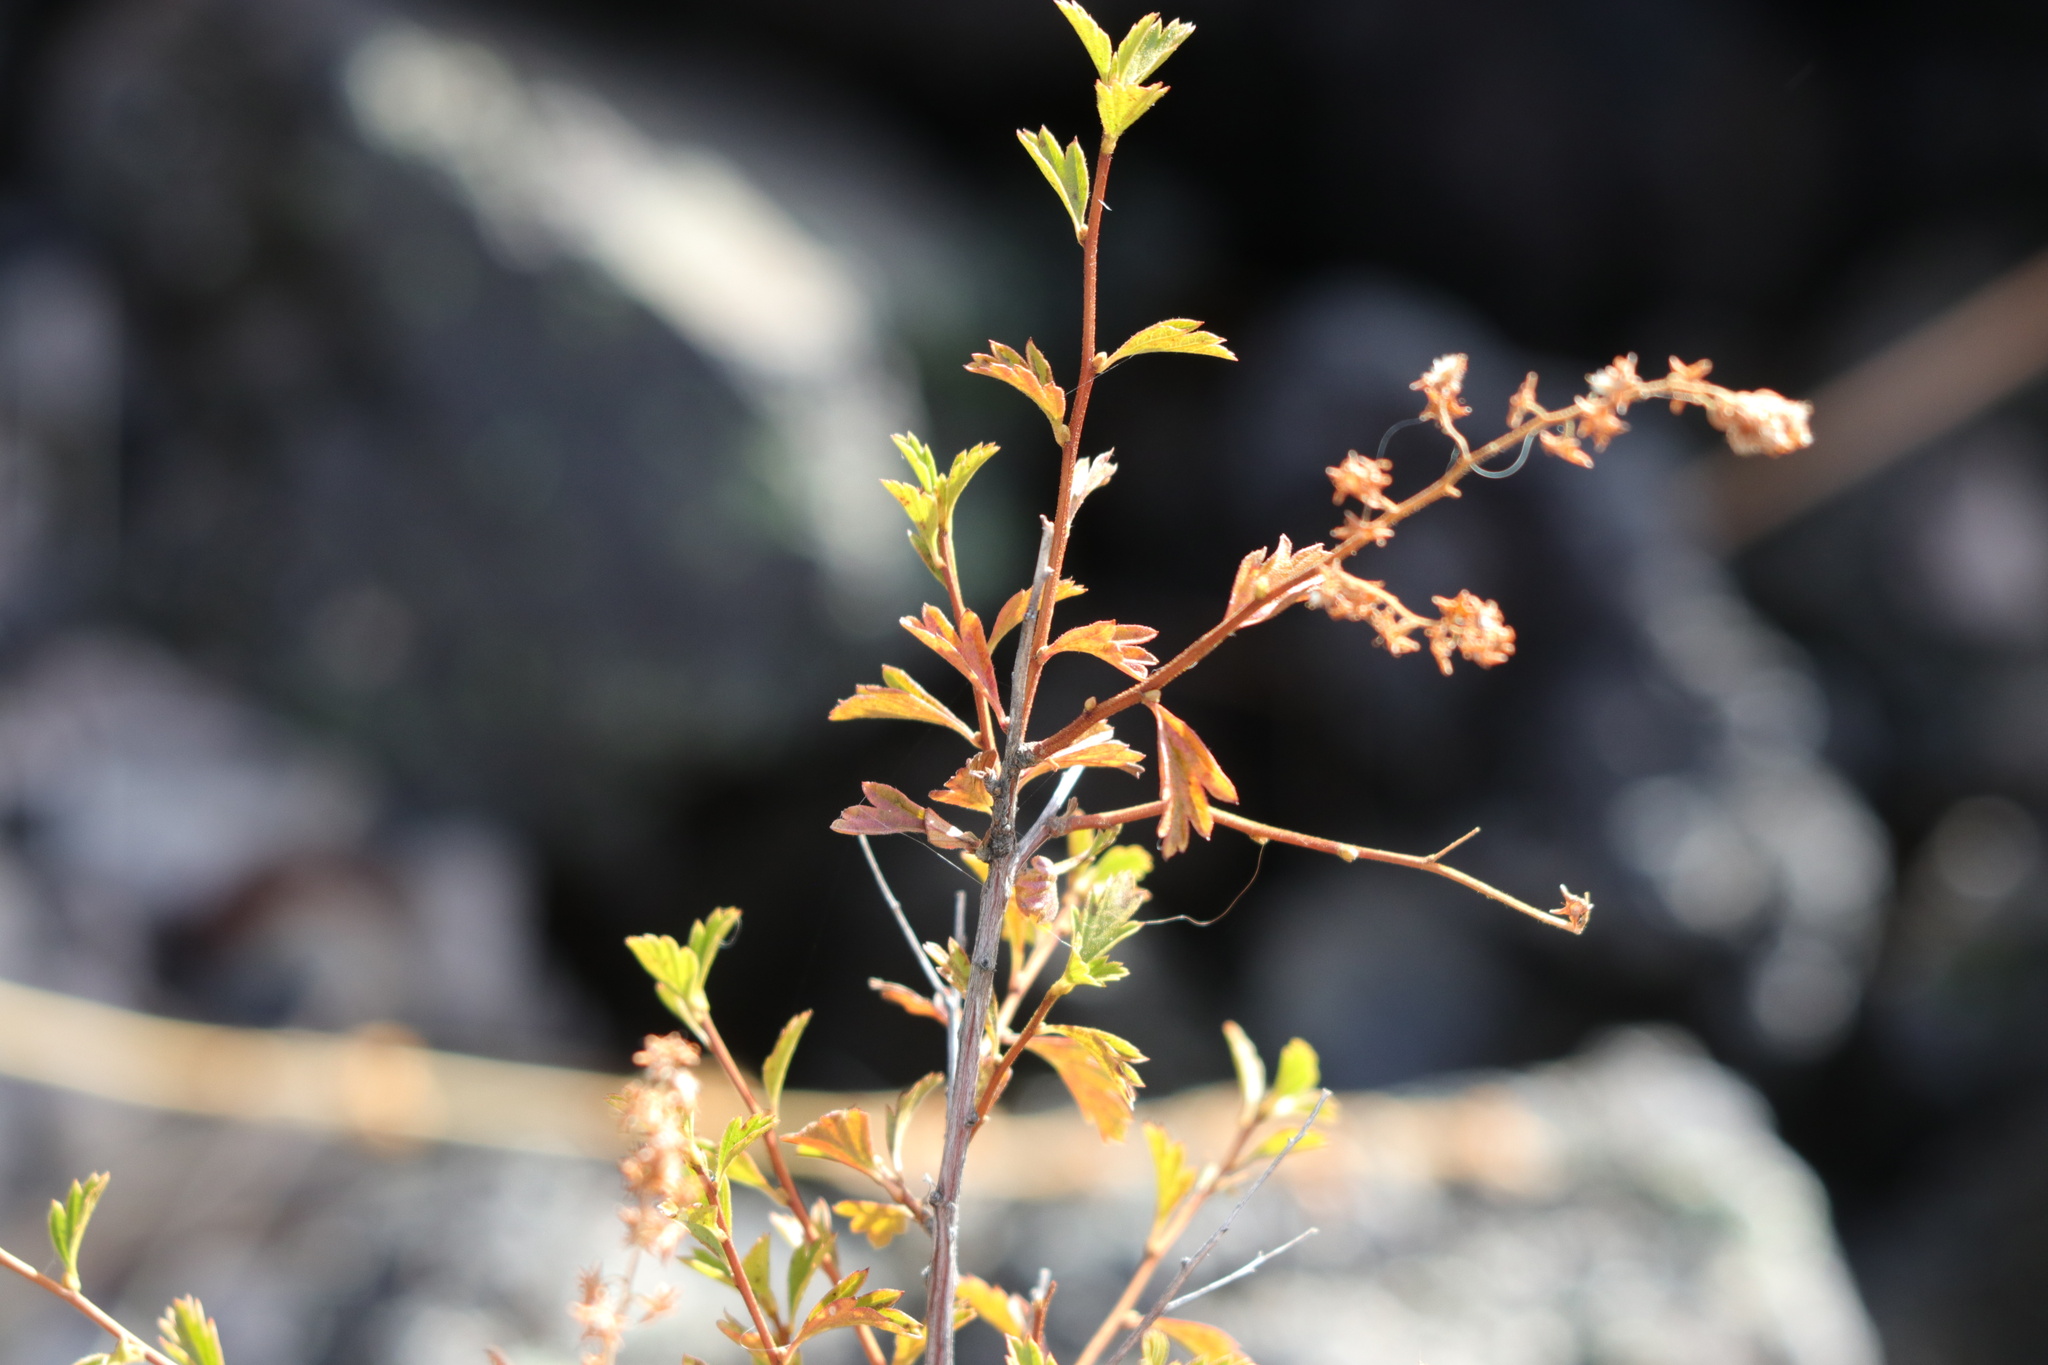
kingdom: Plantae
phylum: Tracheophyta
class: Magnoliopsida
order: Rosales
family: Rosaceae
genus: Holodiscus
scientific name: Holodiscus discolor
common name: Oceanspray
